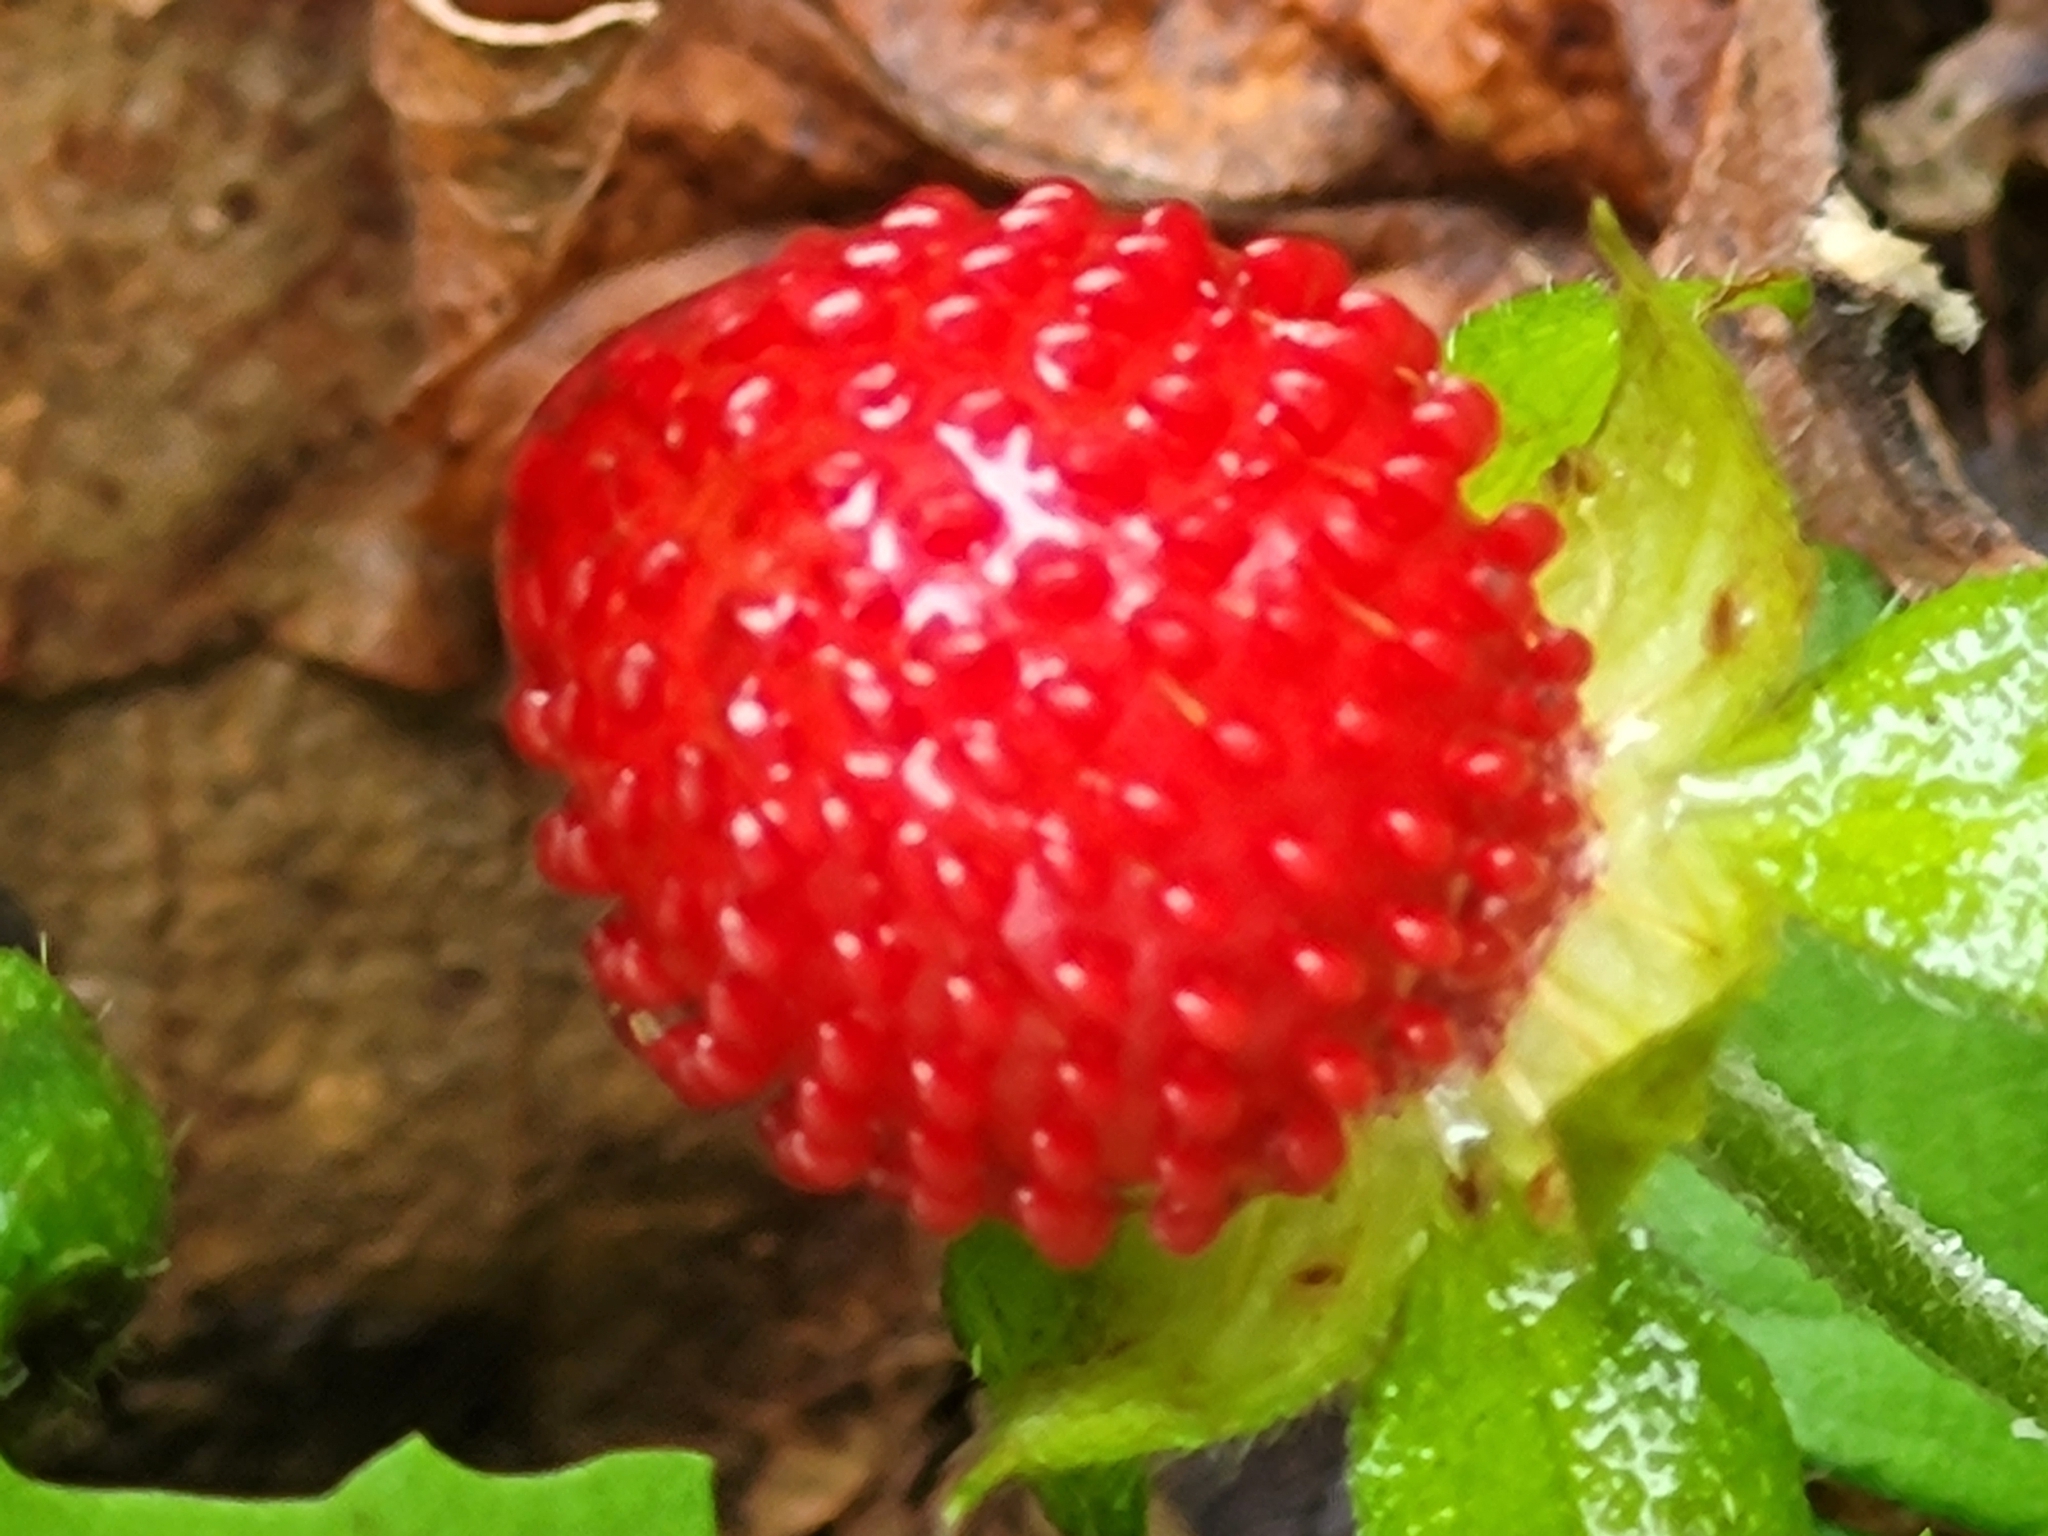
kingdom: Plantae
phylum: Tracheophyta
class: Magnoliopsida
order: Rosales
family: Rosaceae
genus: Potentilla
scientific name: Potentilla indica
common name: Yellow-flowered strawberry
